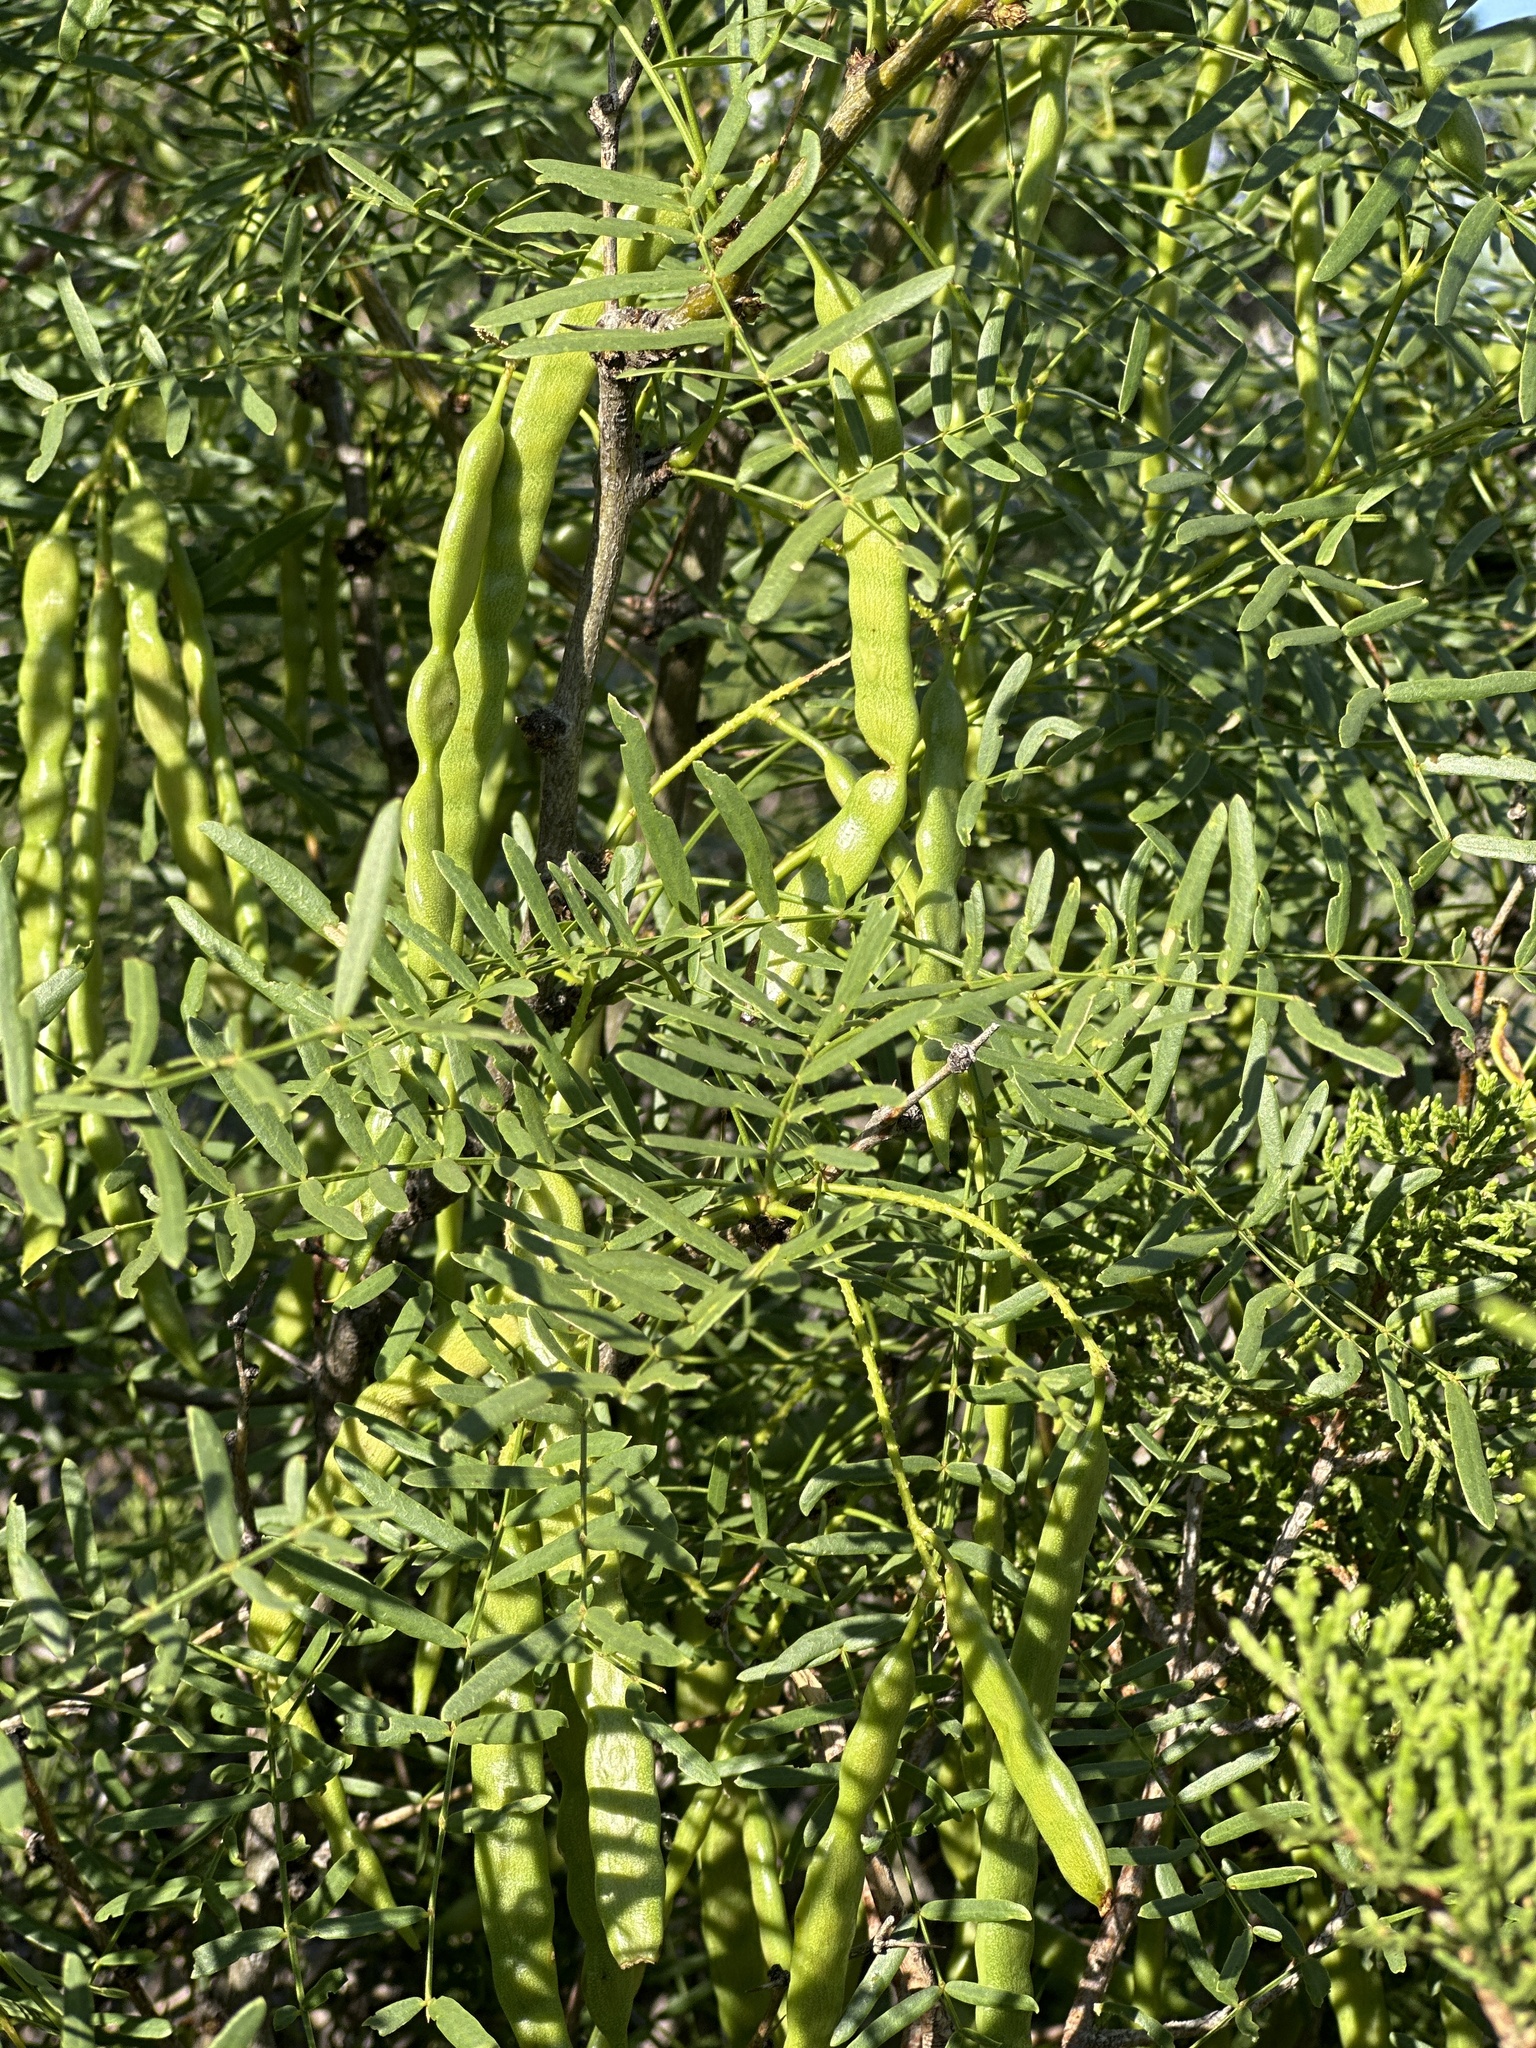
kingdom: Plantae
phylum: Tracheophyta
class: Magnoliopsida
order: Fabales
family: Fabaceae
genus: Prosopis
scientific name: Prosopis glandulosa
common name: Honey mesquite
